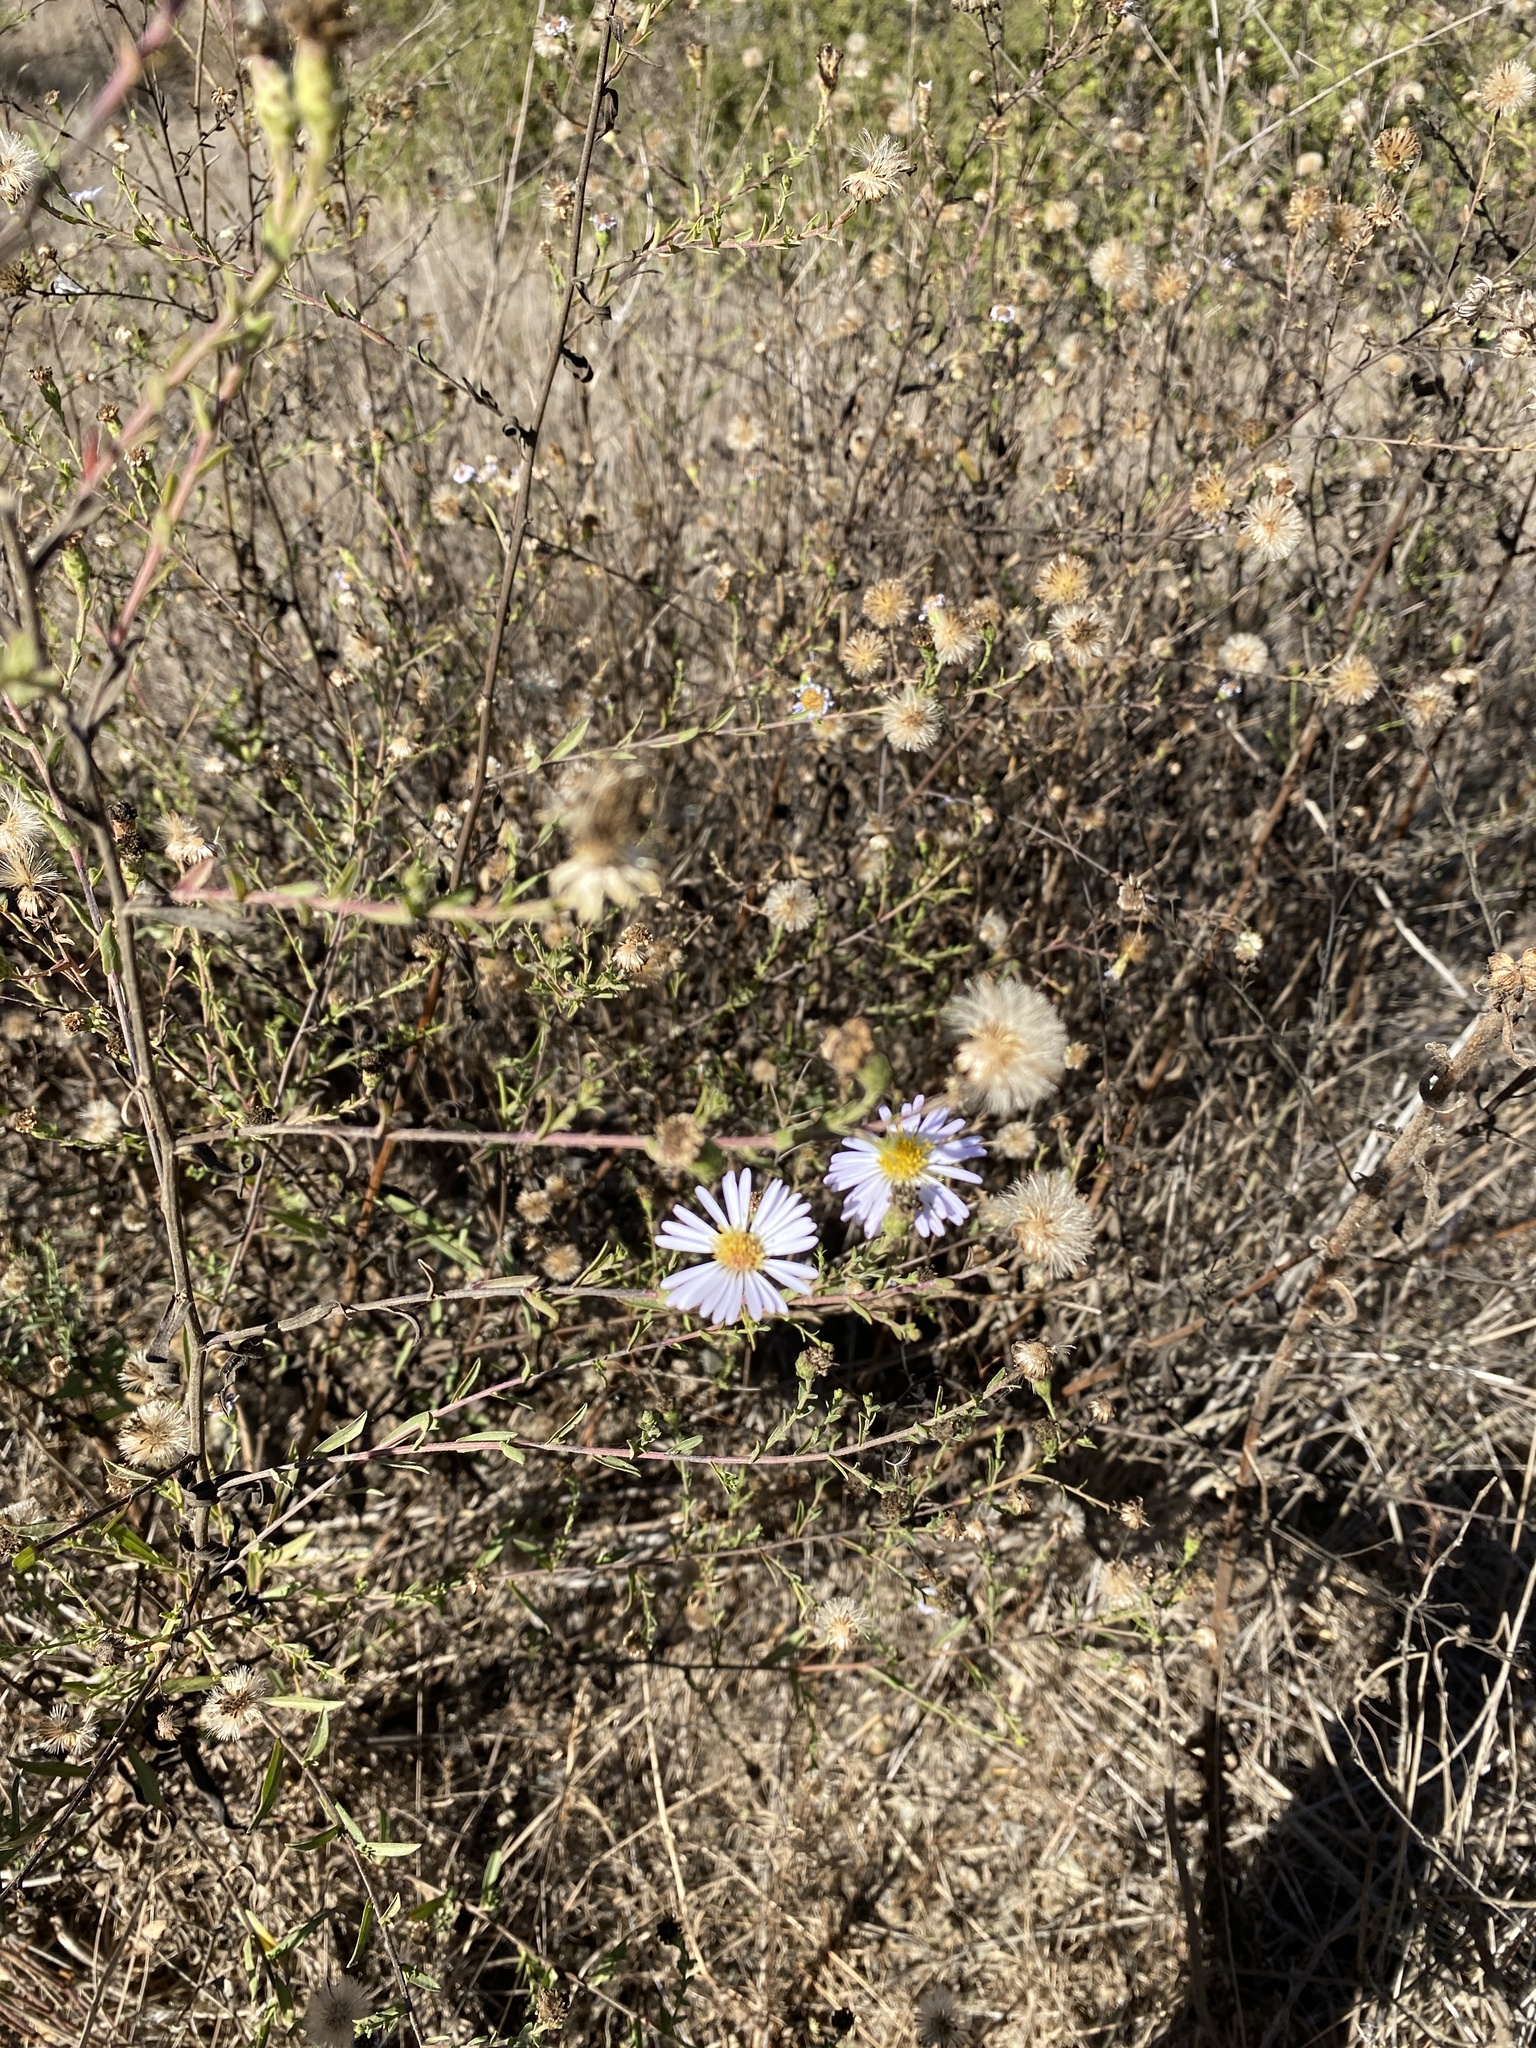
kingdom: Plantae
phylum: Tracheophyta
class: Magnoliopsida
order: Asterales
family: Asteraceae
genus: Symphyotrichum
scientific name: Symphyotrichum chilense
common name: Pacific aster
